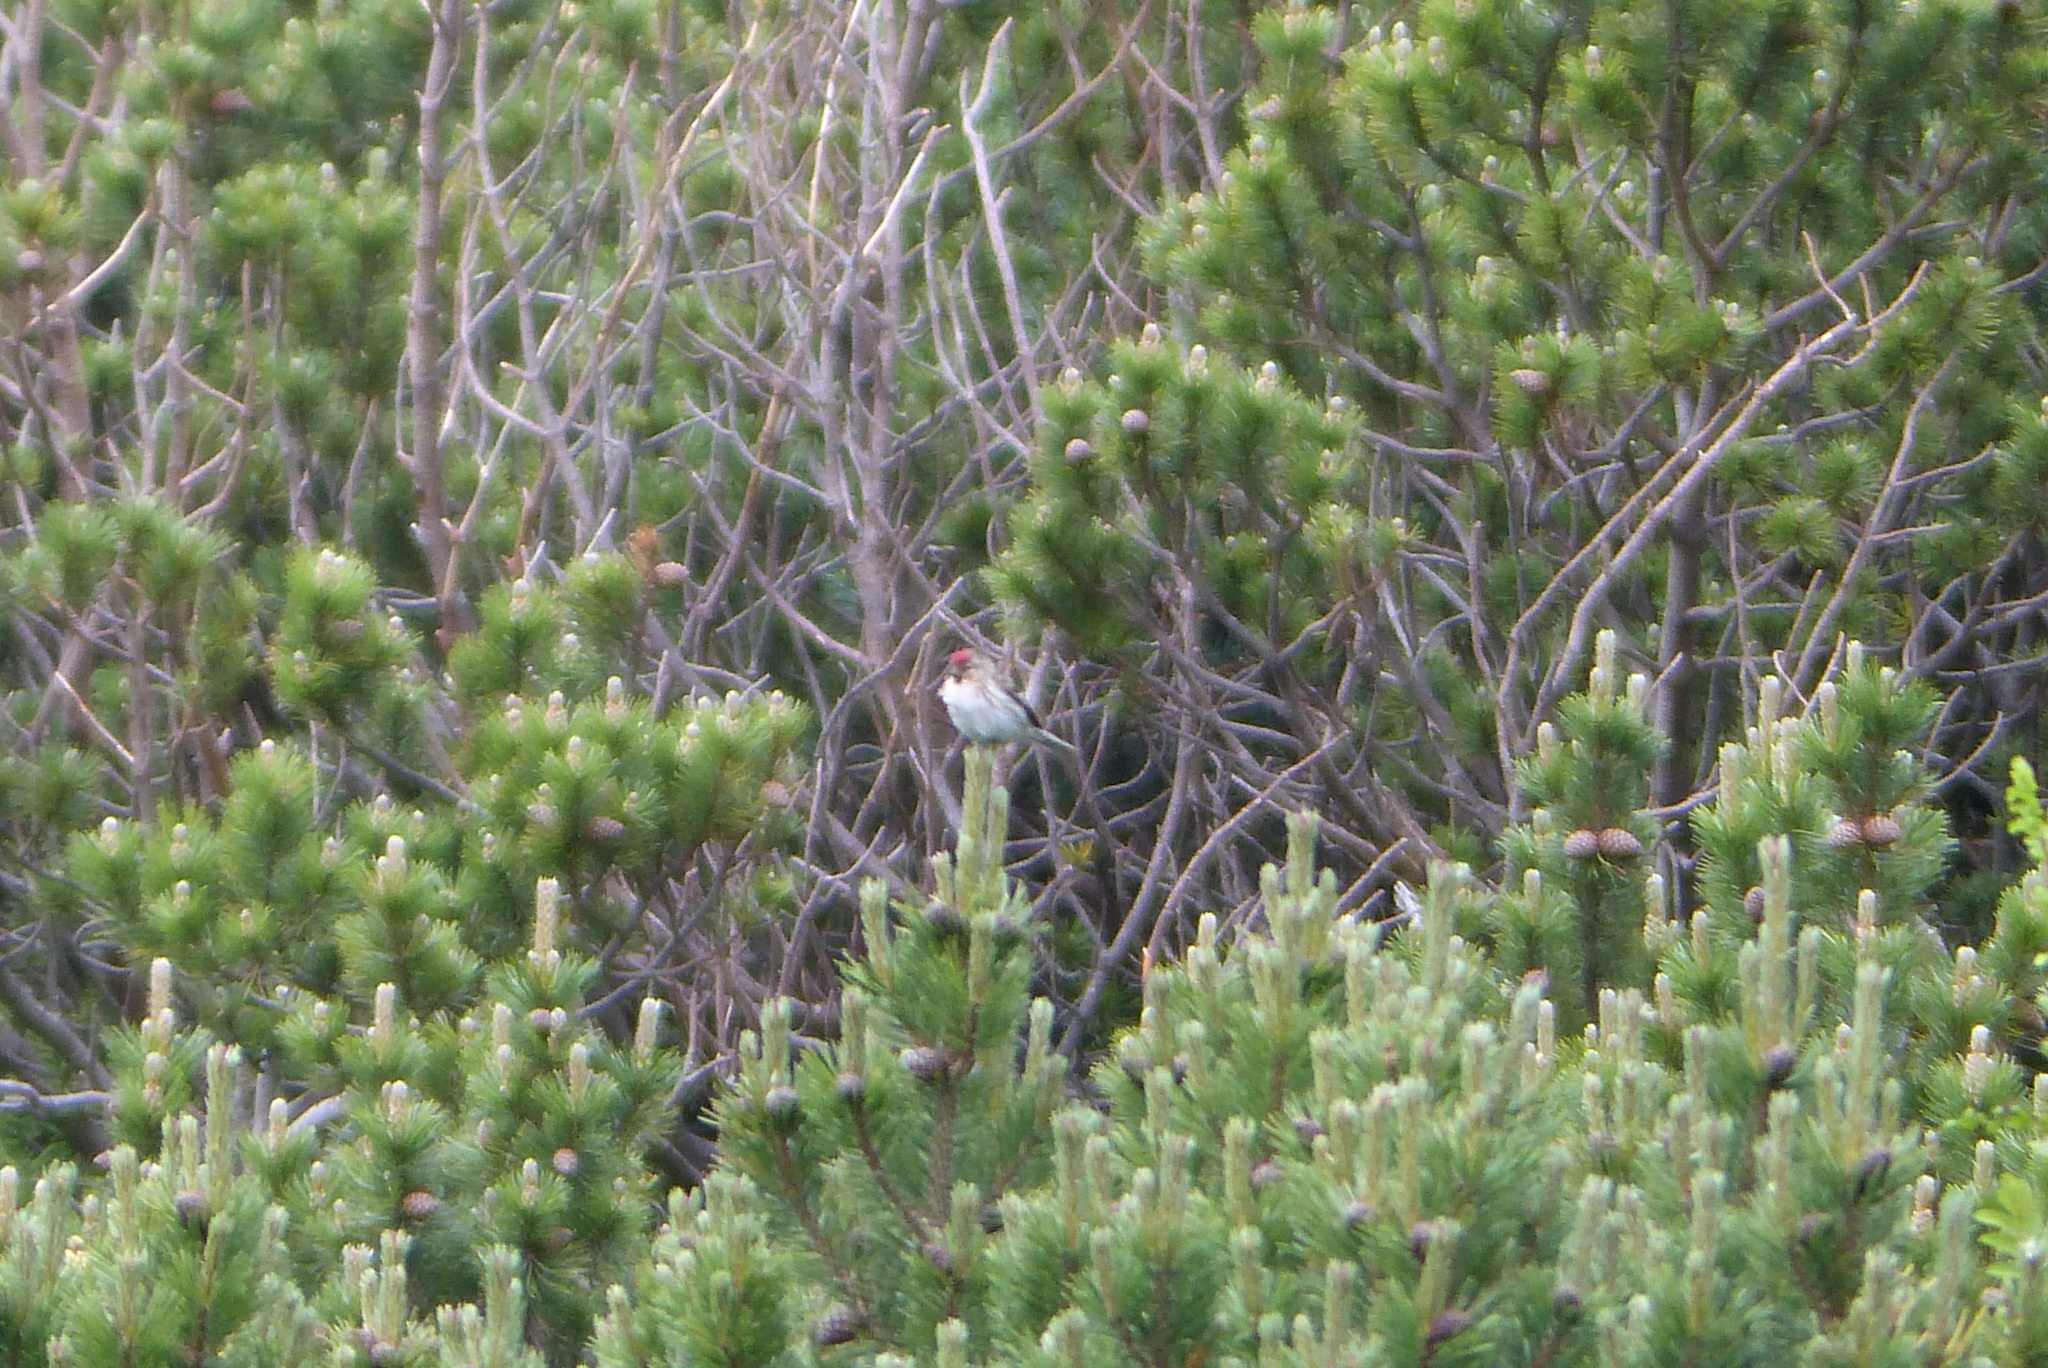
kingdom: Animalia
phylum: Chordata
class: Aves
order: Passeriformes
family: Fringillidae
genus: Acanthis
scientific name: Acanthis flammea
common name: Common redpoll
